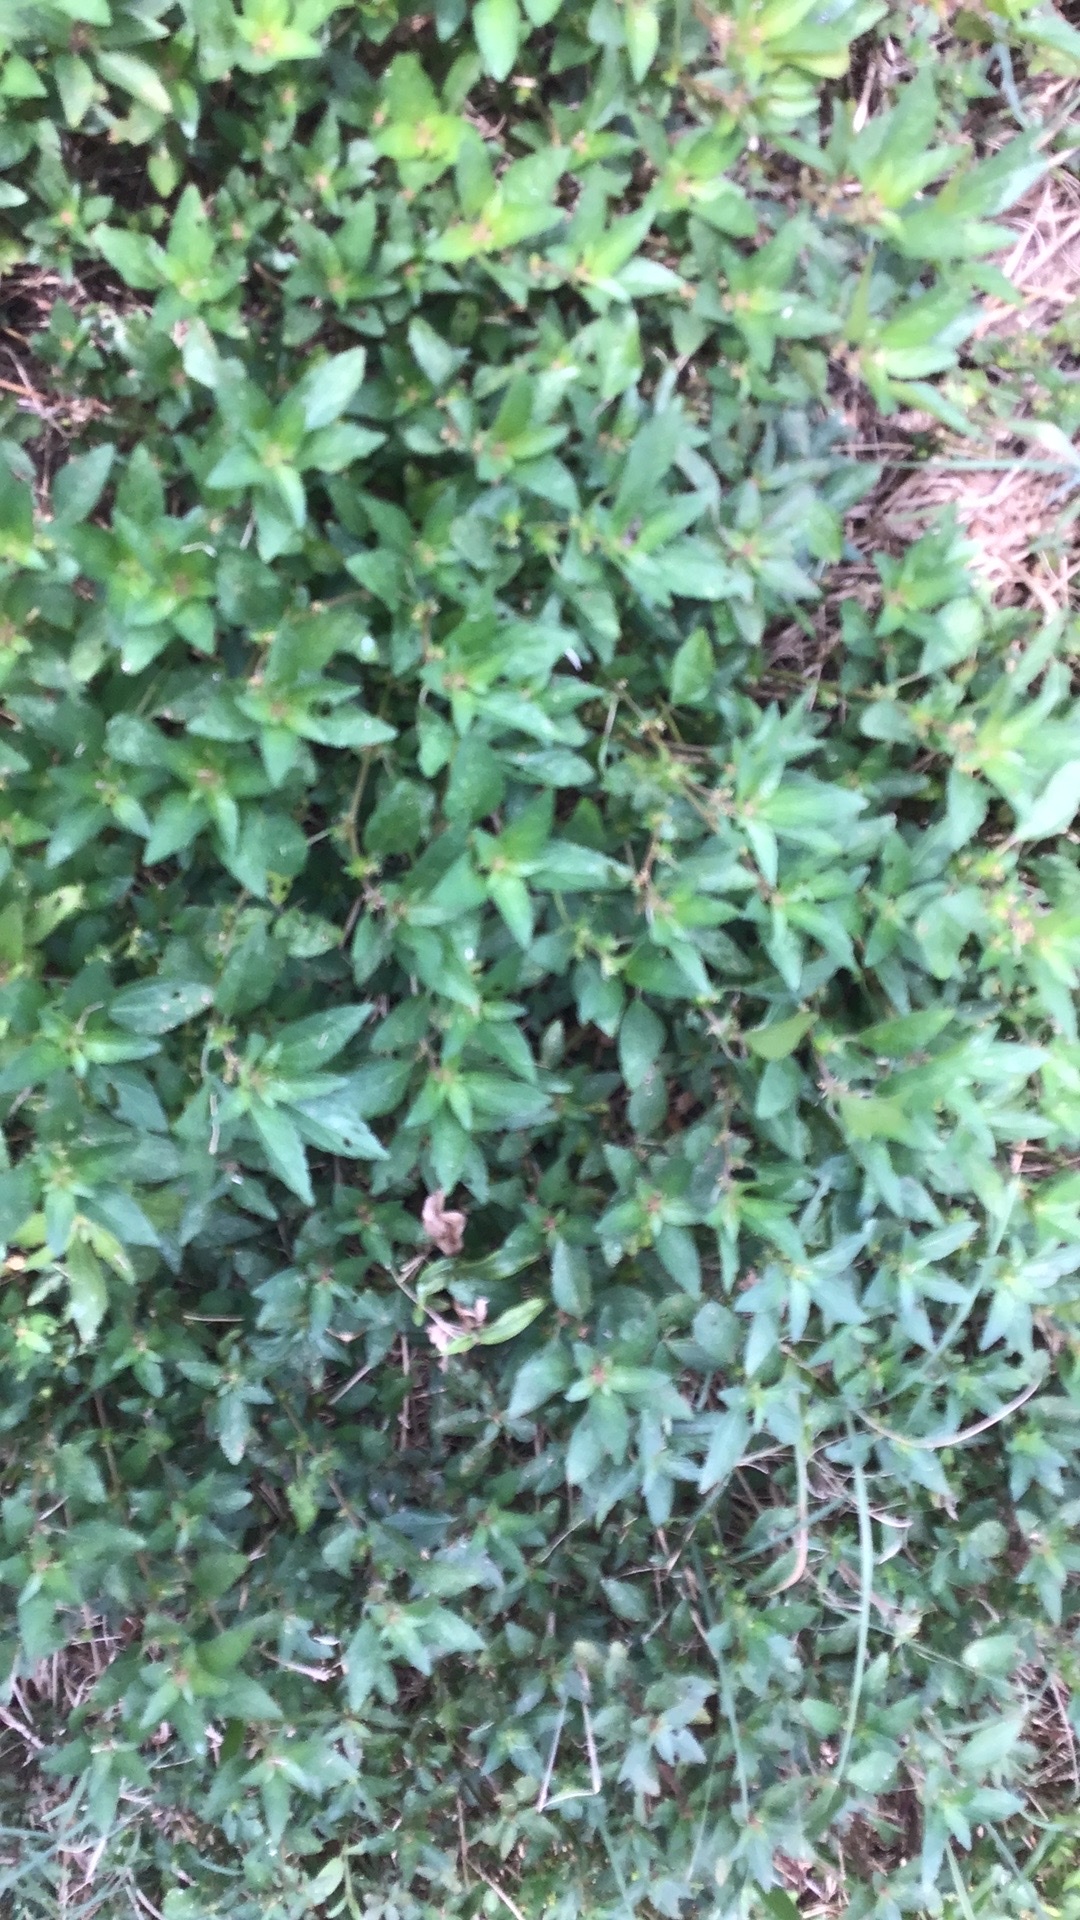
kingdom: Plantae
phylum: Tracheophyta
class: Magnoliopsida
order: Malpighiales
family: Euphorbiaceae
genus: Acalypha
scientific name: Acalypha rhomboidea
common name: Rhombic copperleaf
